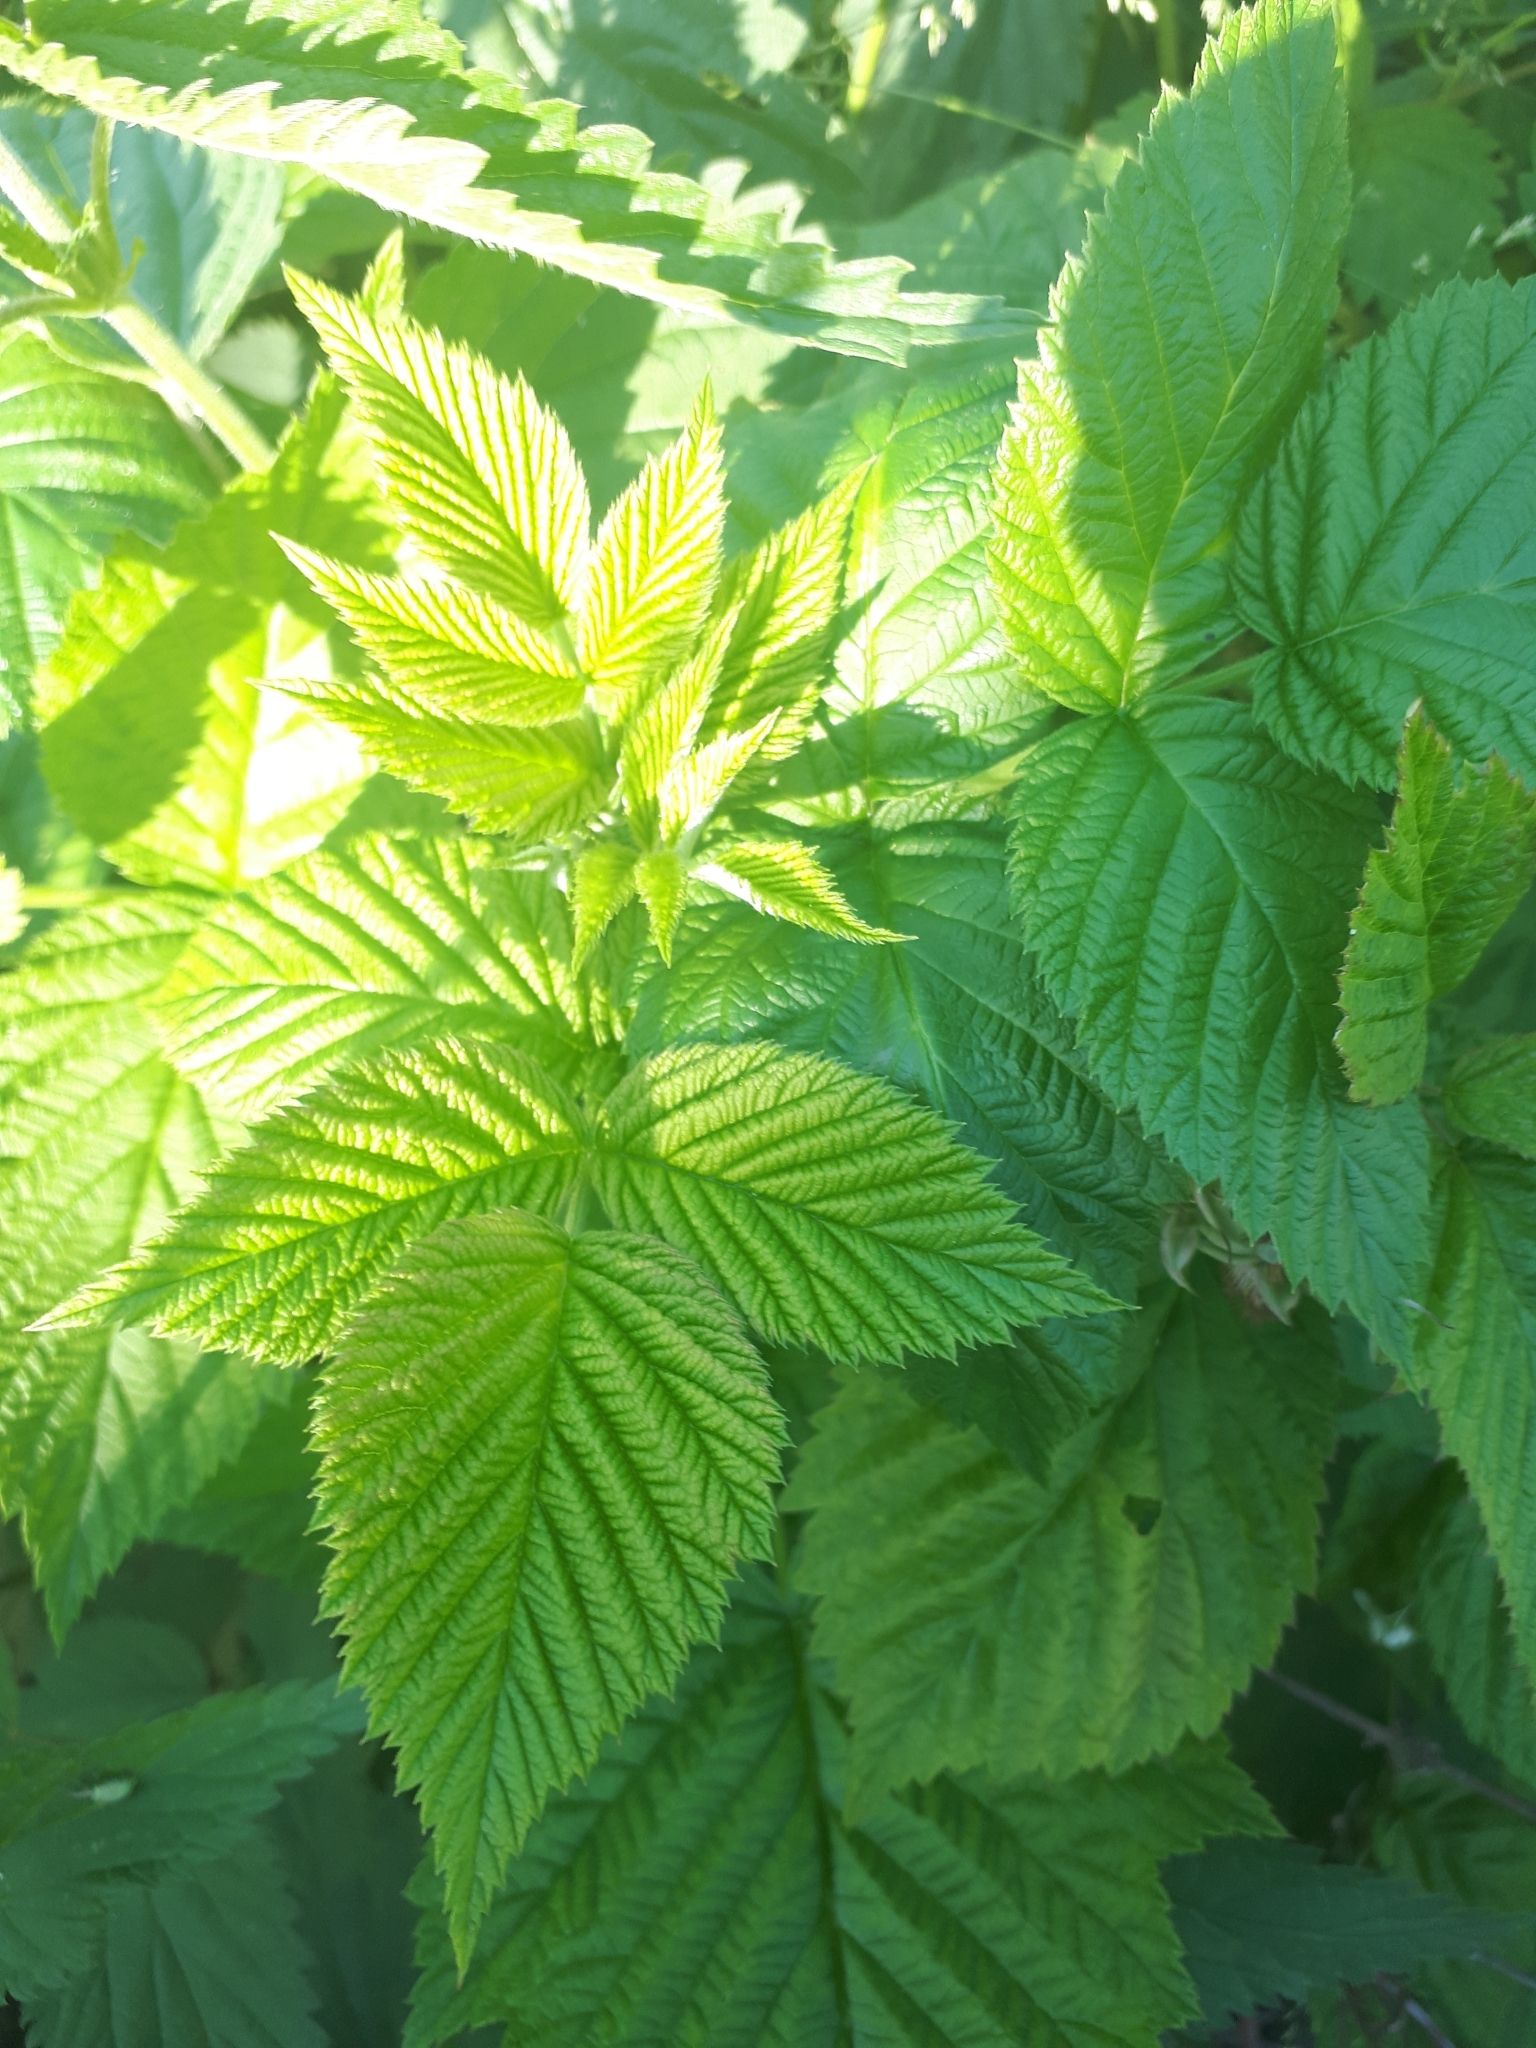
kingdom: Plantae
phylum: Tracheophyta
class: Magnoliopsida
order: Rosales
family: Rosaceae
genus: Rubus
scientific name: Rubus idaeus
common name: Raspberry
